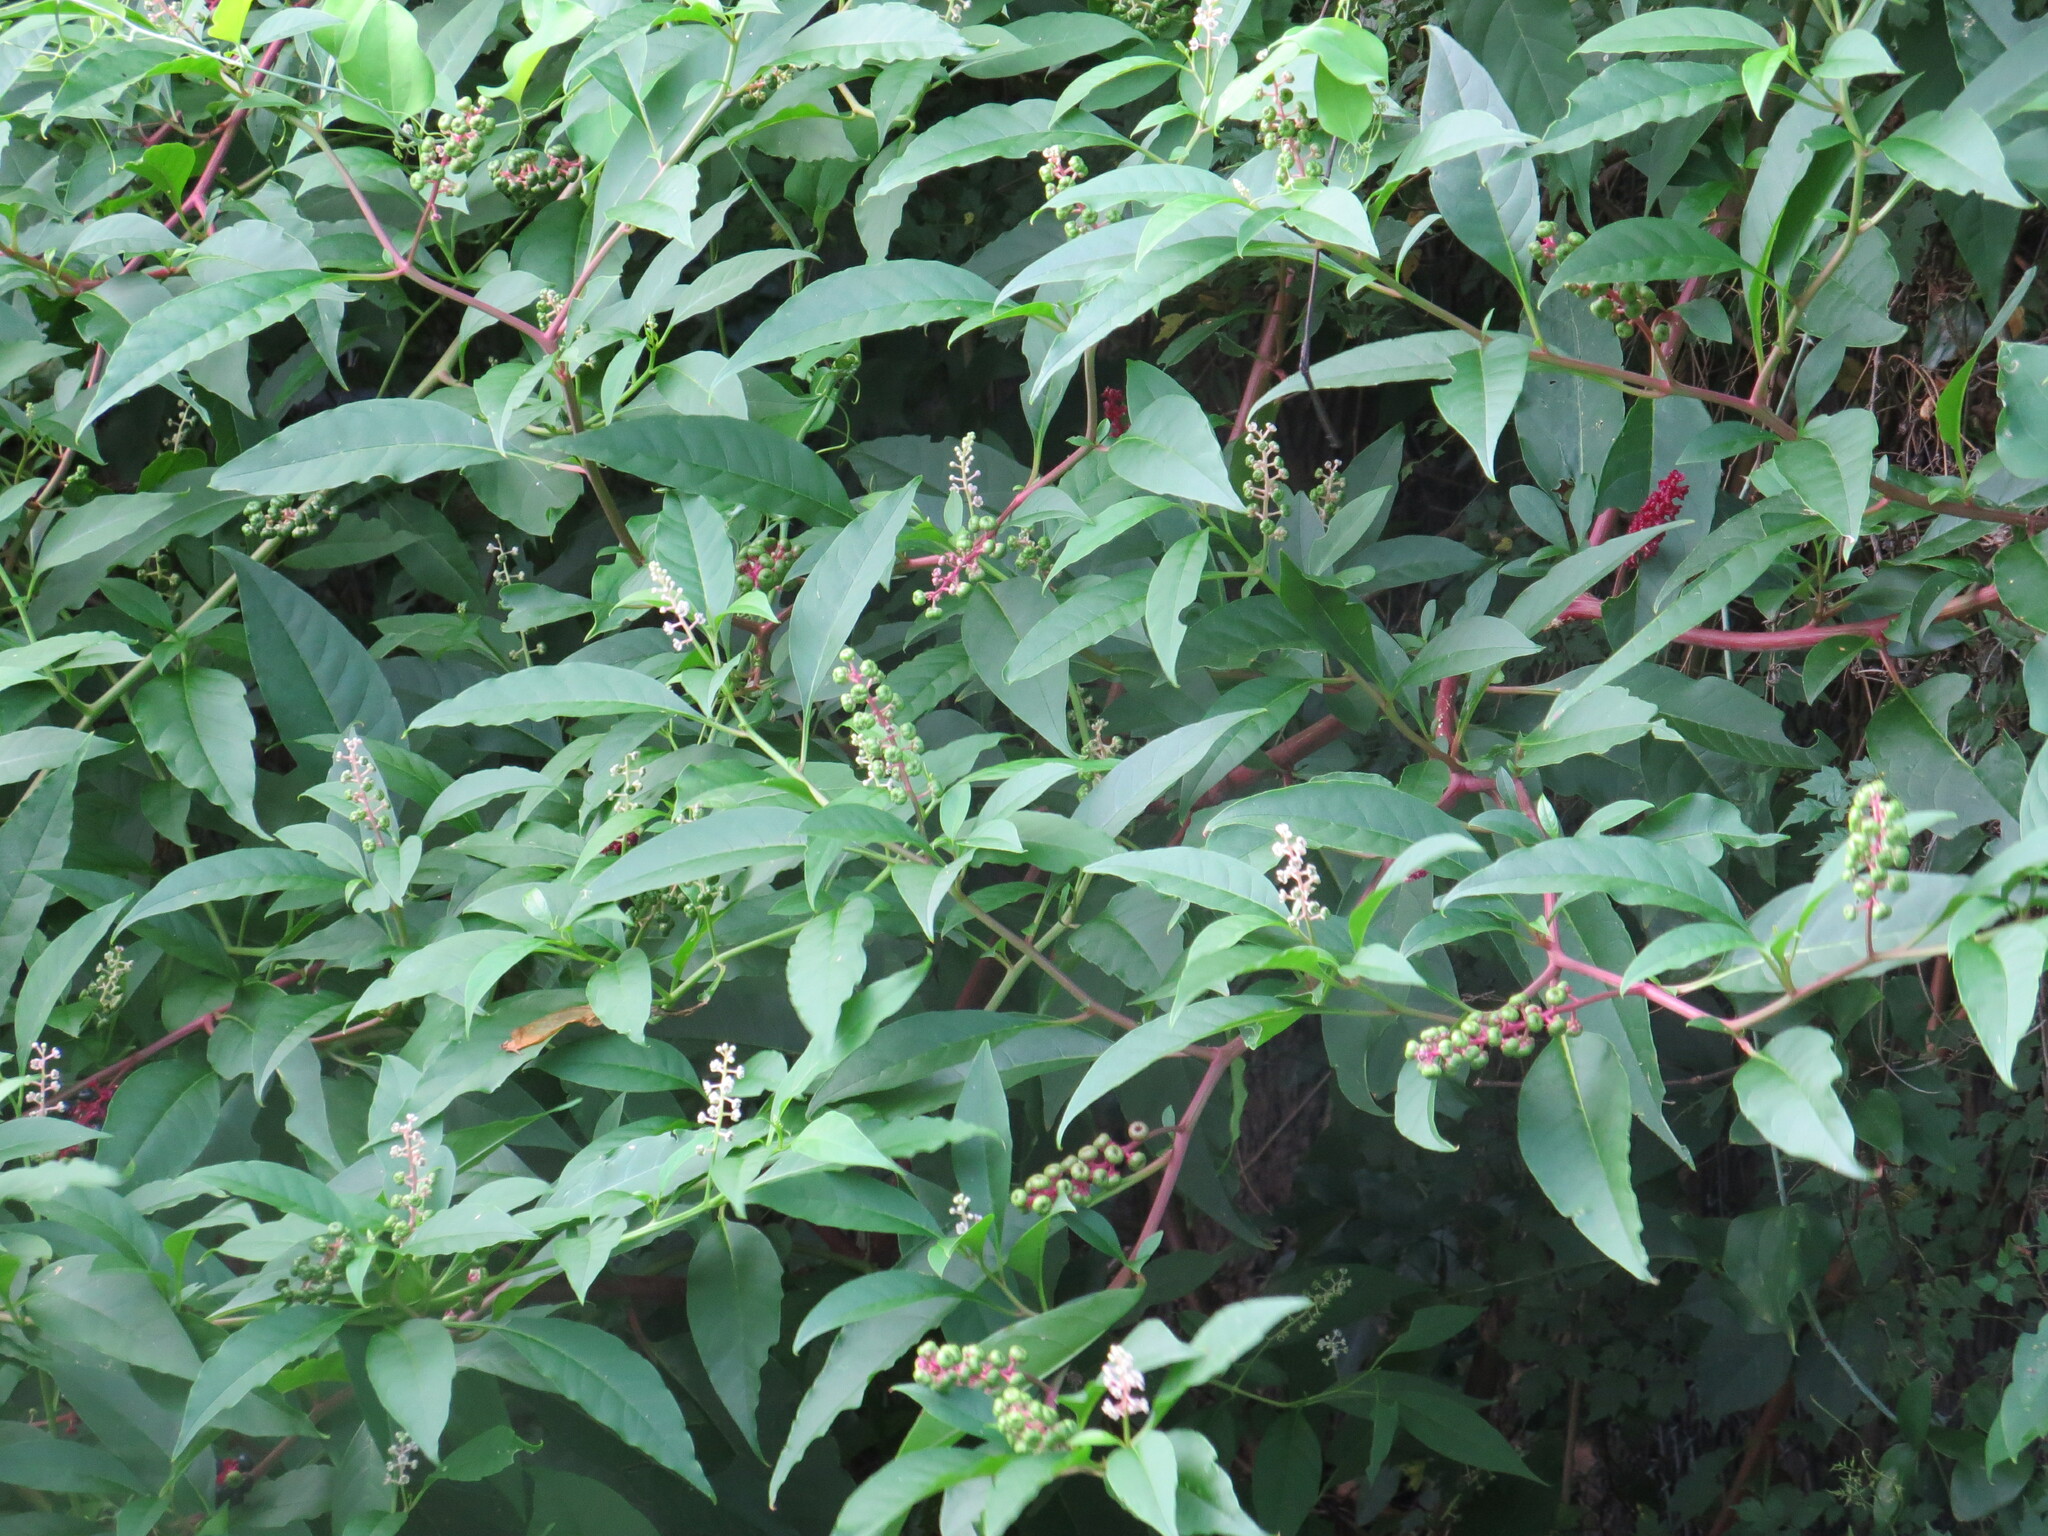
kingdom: Plantae
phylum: Tracheophyta
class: Magnoliopsida
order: Caryophyllales
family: Phytolaccaceae
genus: Phytolacca
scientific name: Phytolacca americana
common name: American pokeweed
